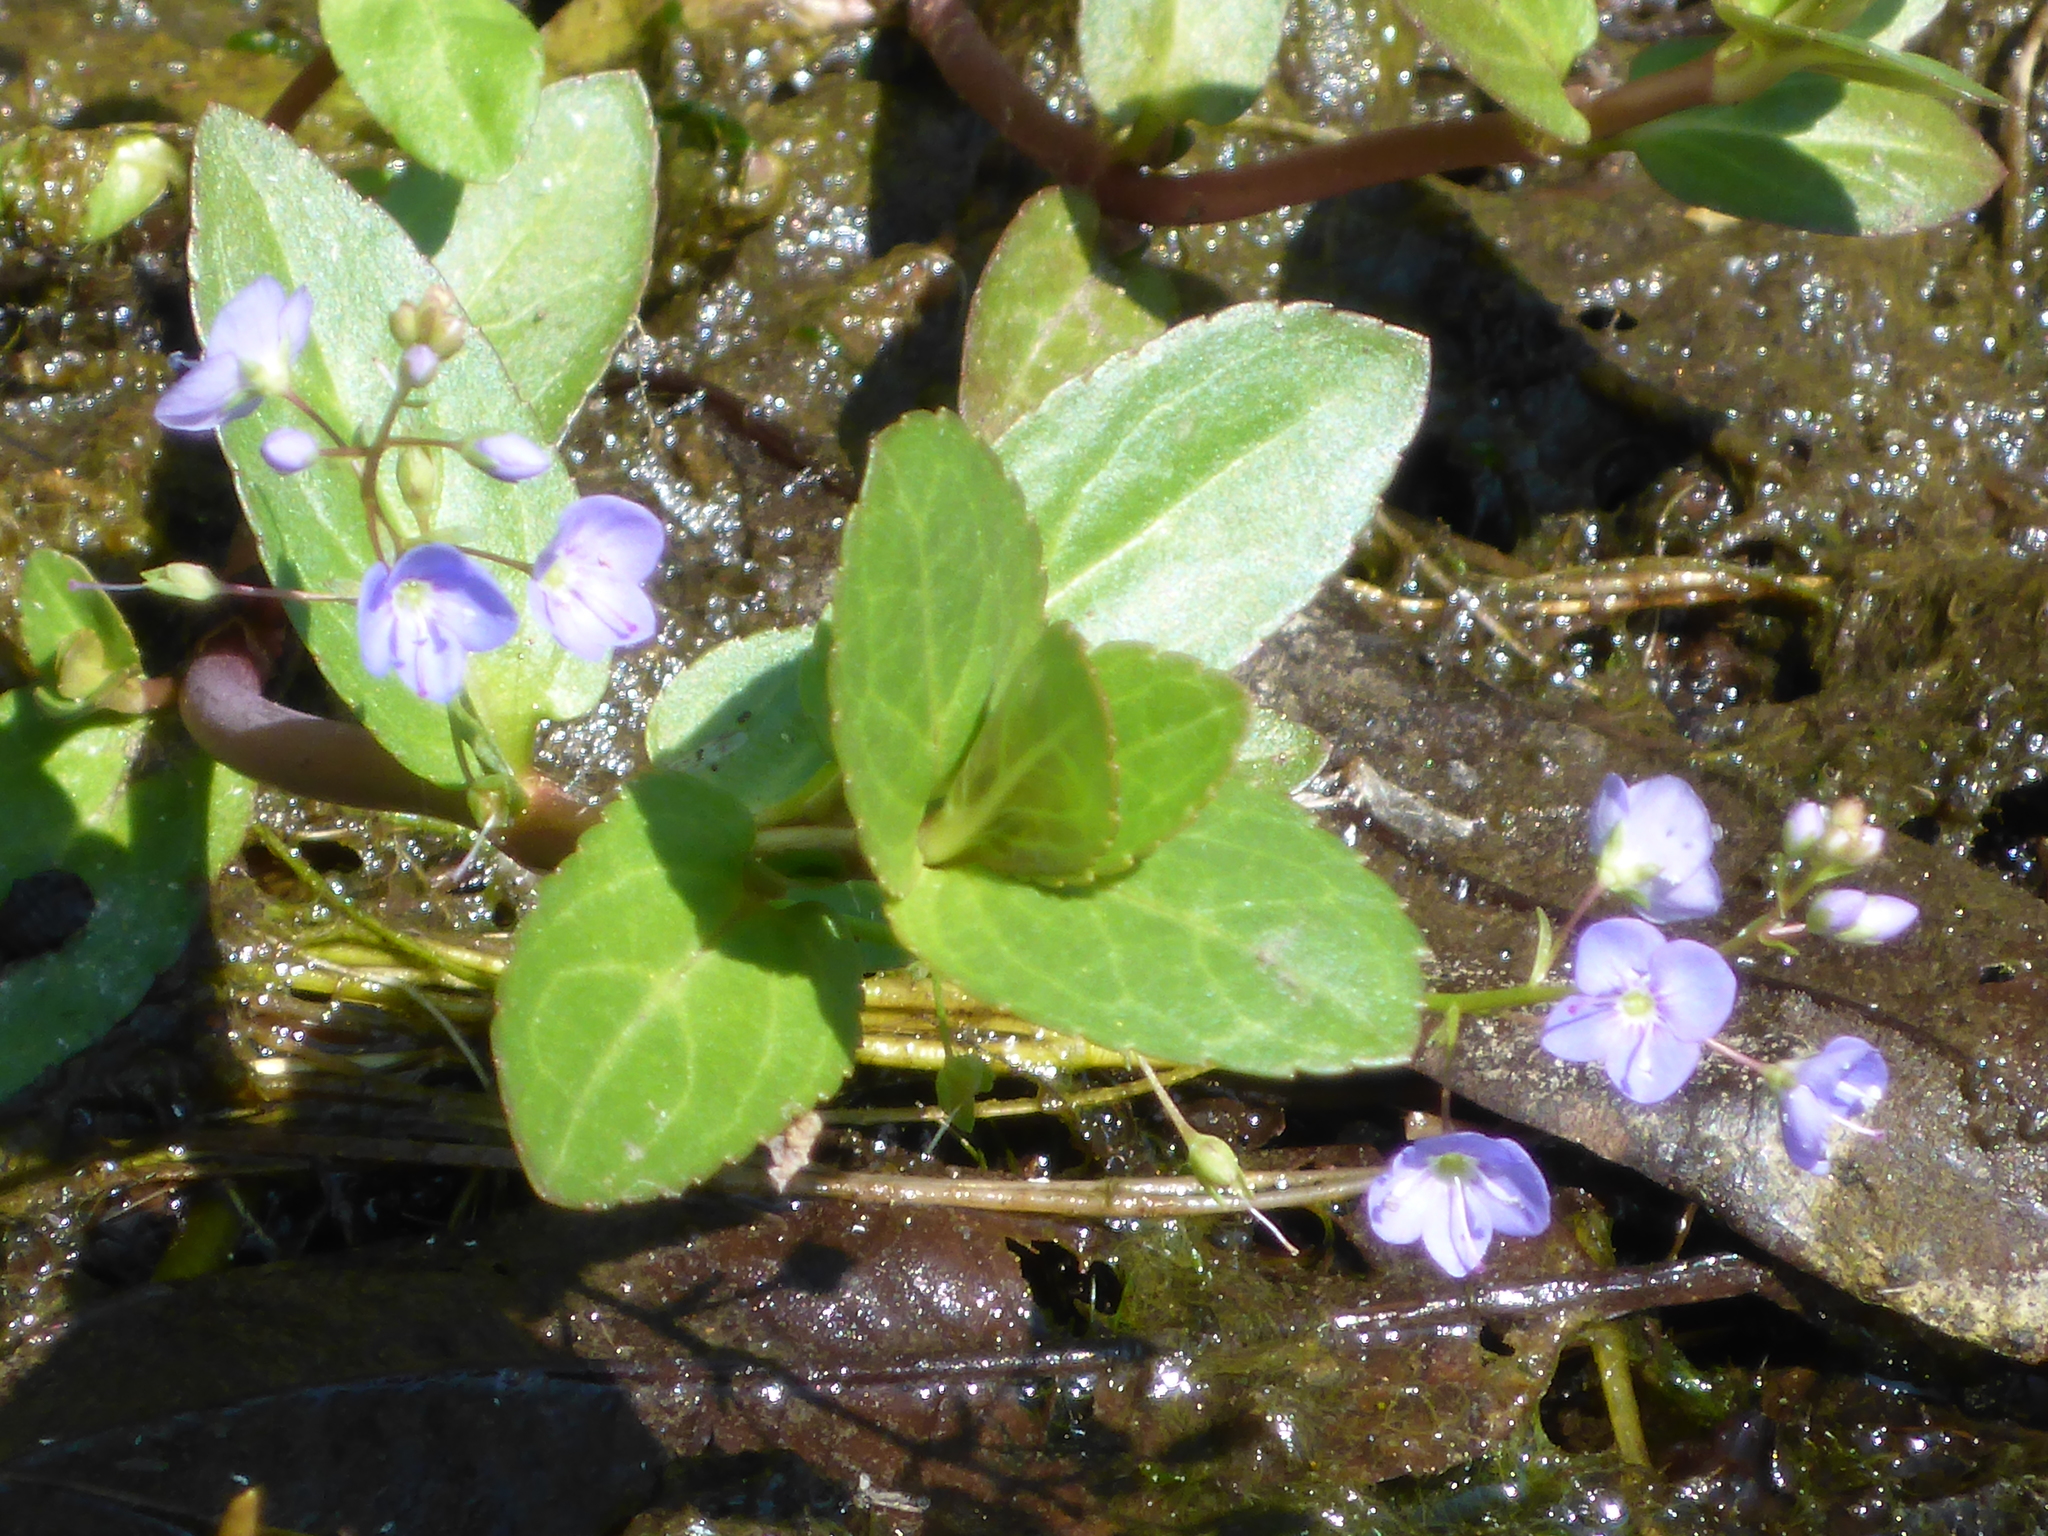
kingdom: Plantae
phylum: Tracheophyta
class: Magnoliopsida
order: Lamiales
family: Plantaginaceae
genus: Veronica
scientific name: Veronica americana
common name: American brooklime
